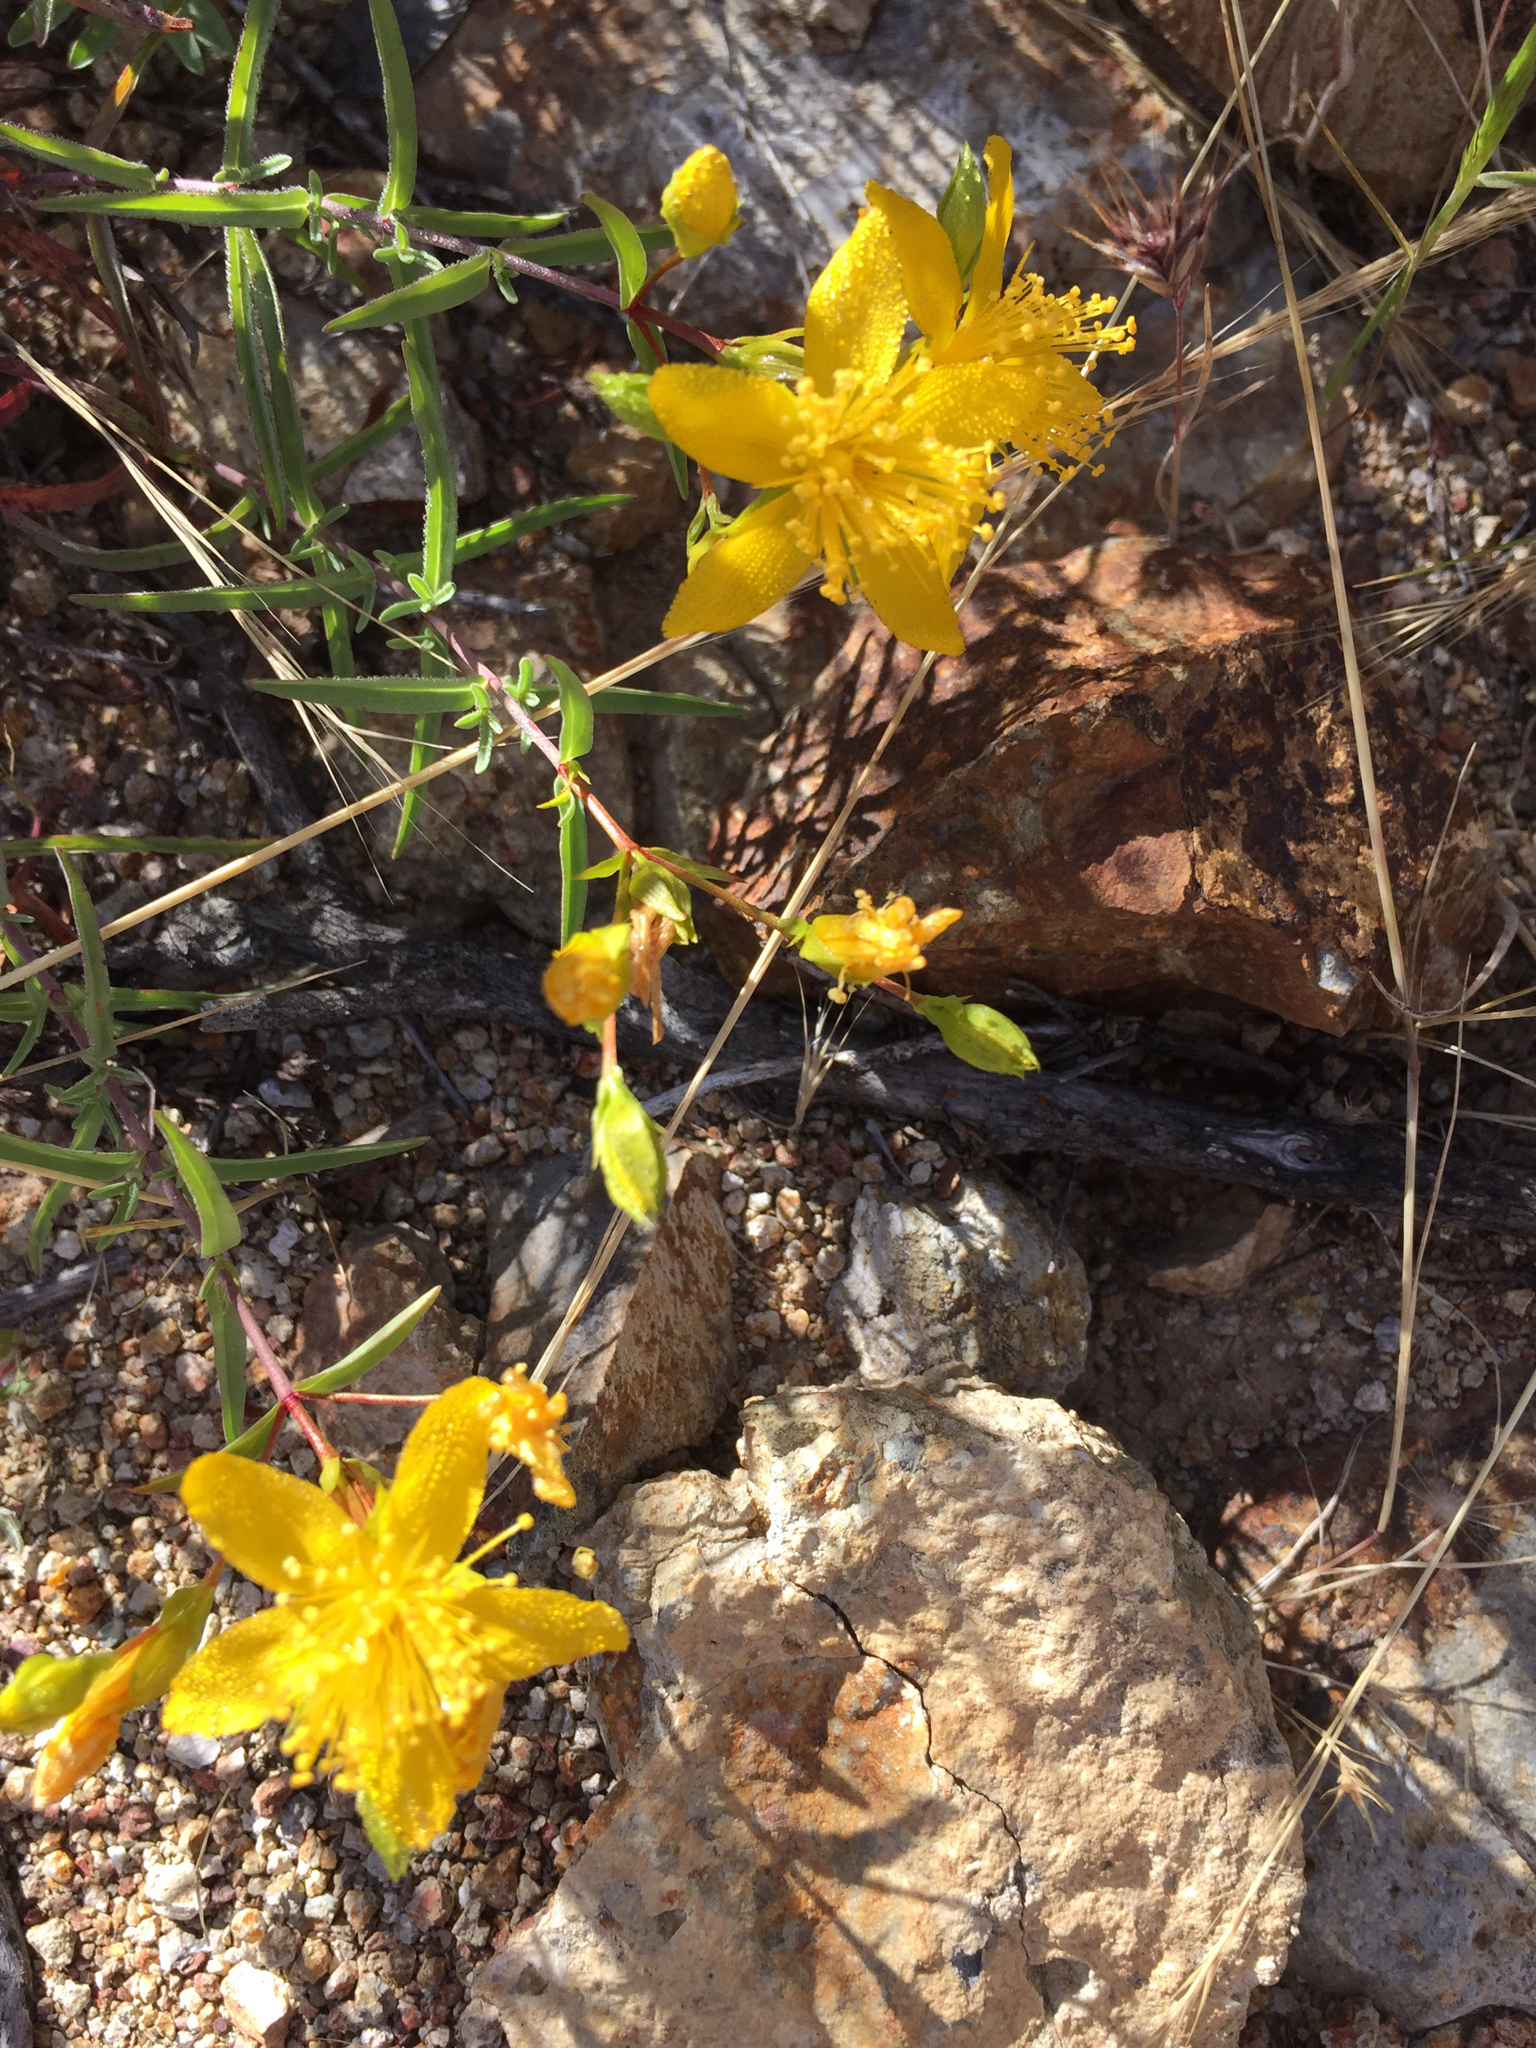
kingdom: Plantae
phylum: Tracheophyta
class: Magnoliopsida
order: Malpighiales
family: Hypericaceae
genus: Hypericum
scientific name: Hypericum concinnum
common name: Gold-wire
